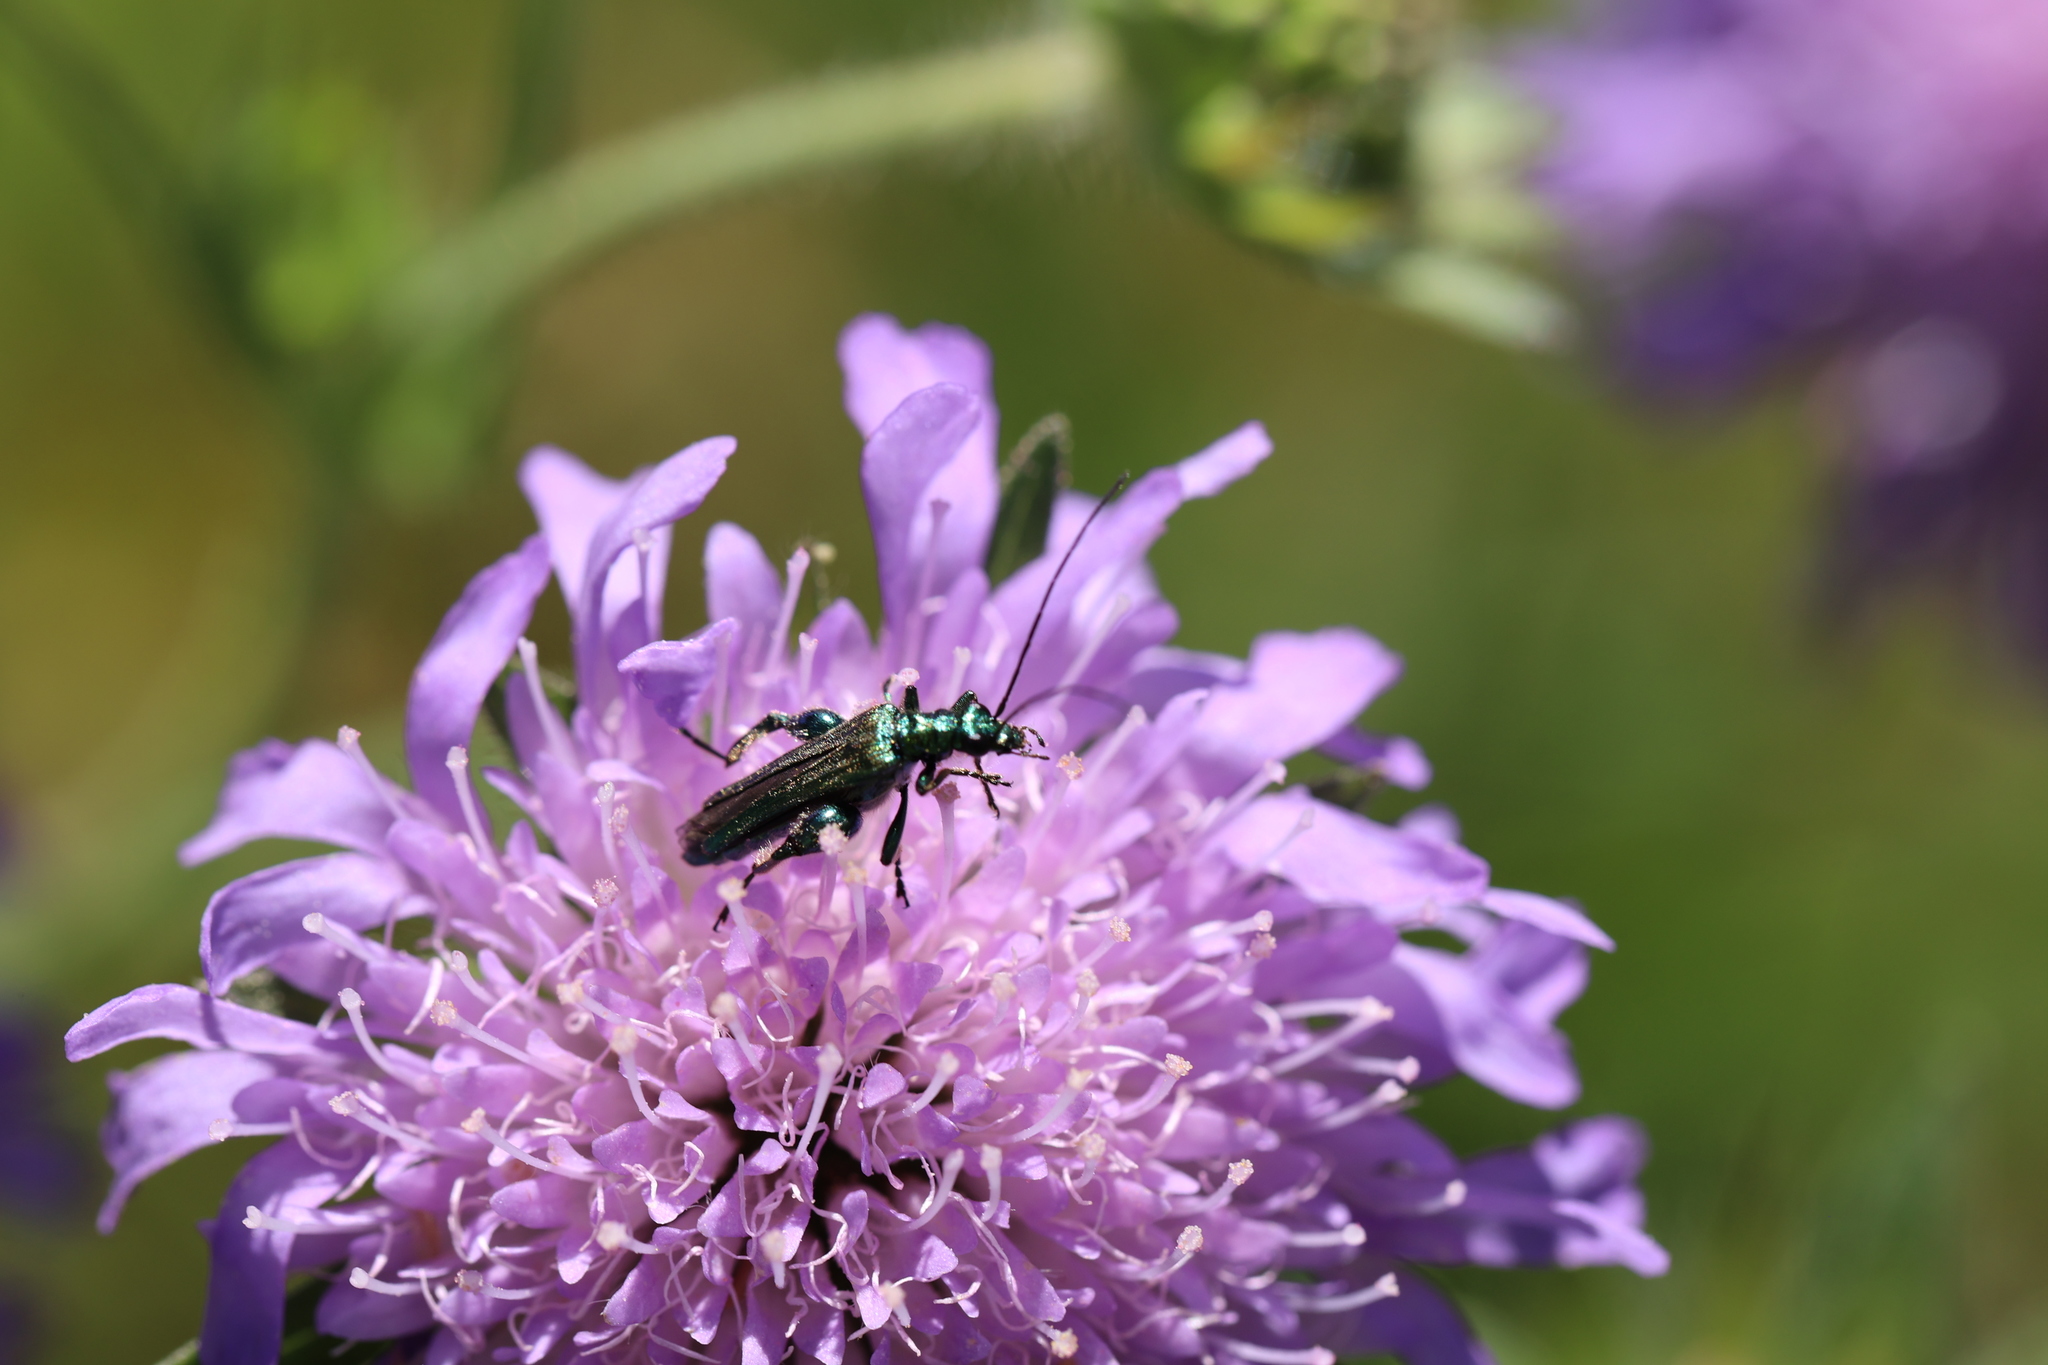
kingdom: Animalia
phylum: Arthropoda
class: Insecta
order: Coleoptera
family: Oedemeridae
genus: Oedemera
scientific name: Oedemera nobilis
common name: Swollen-thighed beetle
